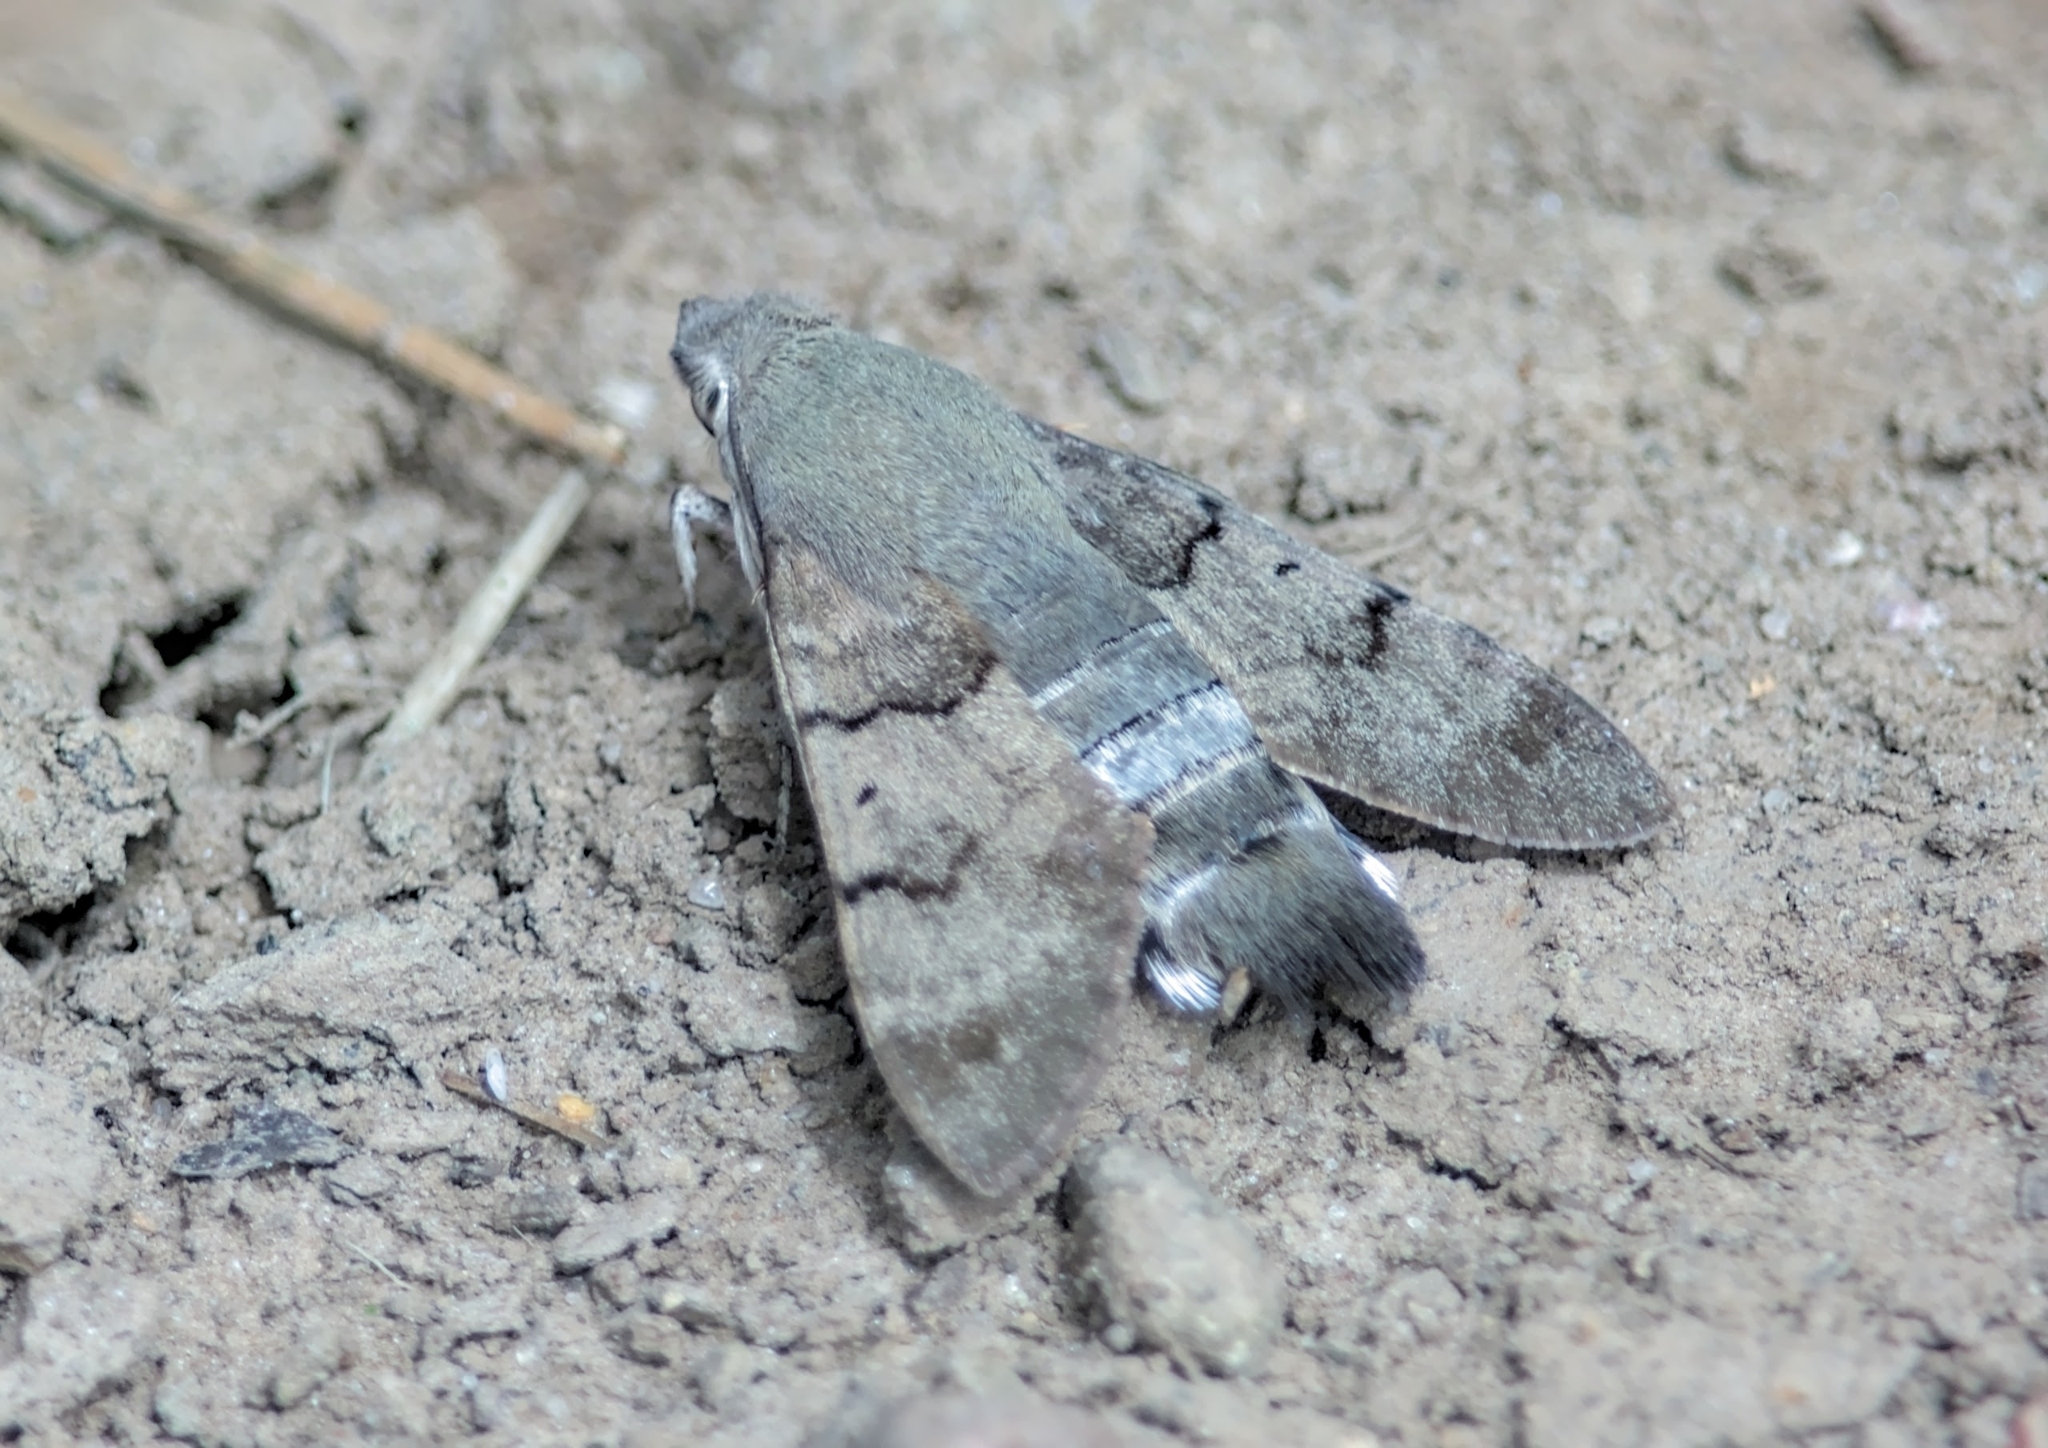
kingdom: Animalia
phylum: Arthropoda
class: Insecta
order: Lepidoptera
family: Sphingidae
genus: Macroglossum
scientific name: Macroglossum stellatarum
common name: Humming-bird hawk-moth
